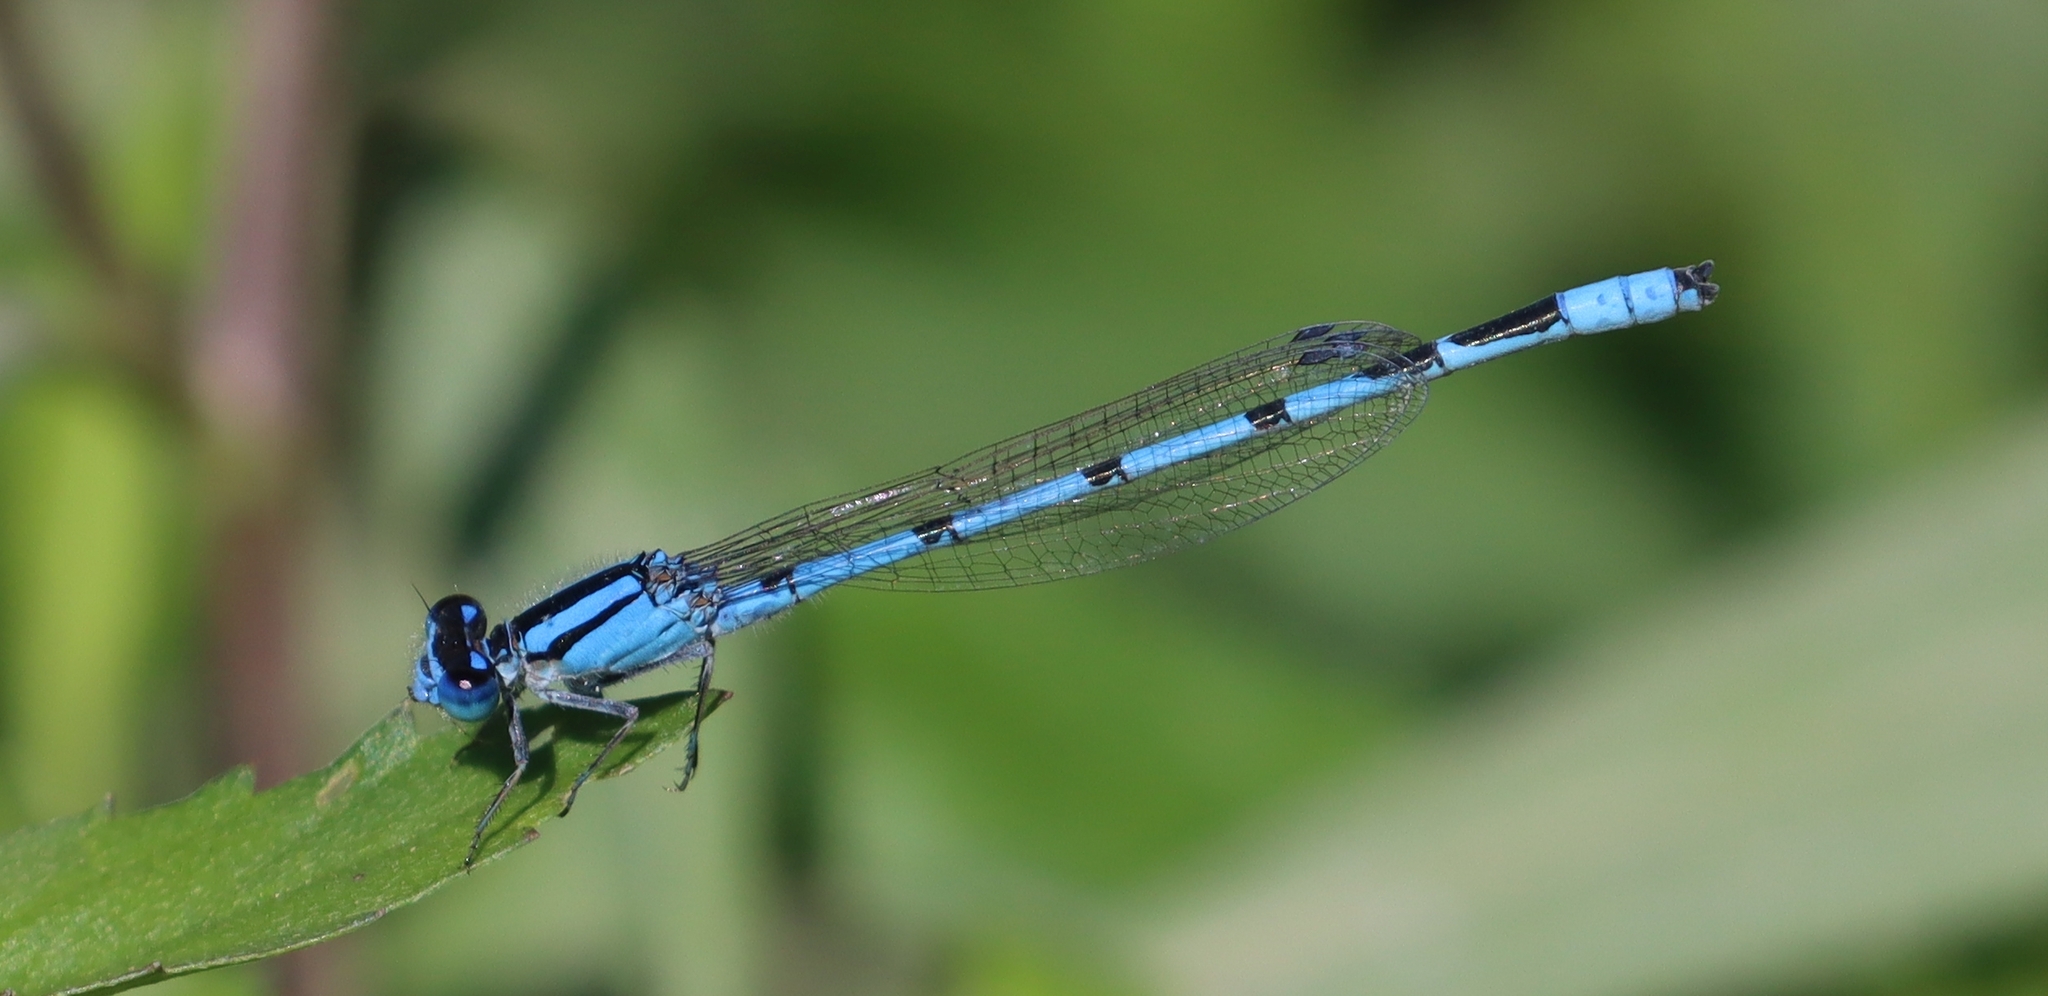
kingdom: Animalia
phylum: Arthropoda
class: Insecta
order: Odonata
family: Coenagrionidae
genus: Enallagma
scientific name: Enallagma civile
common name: Damselfly
